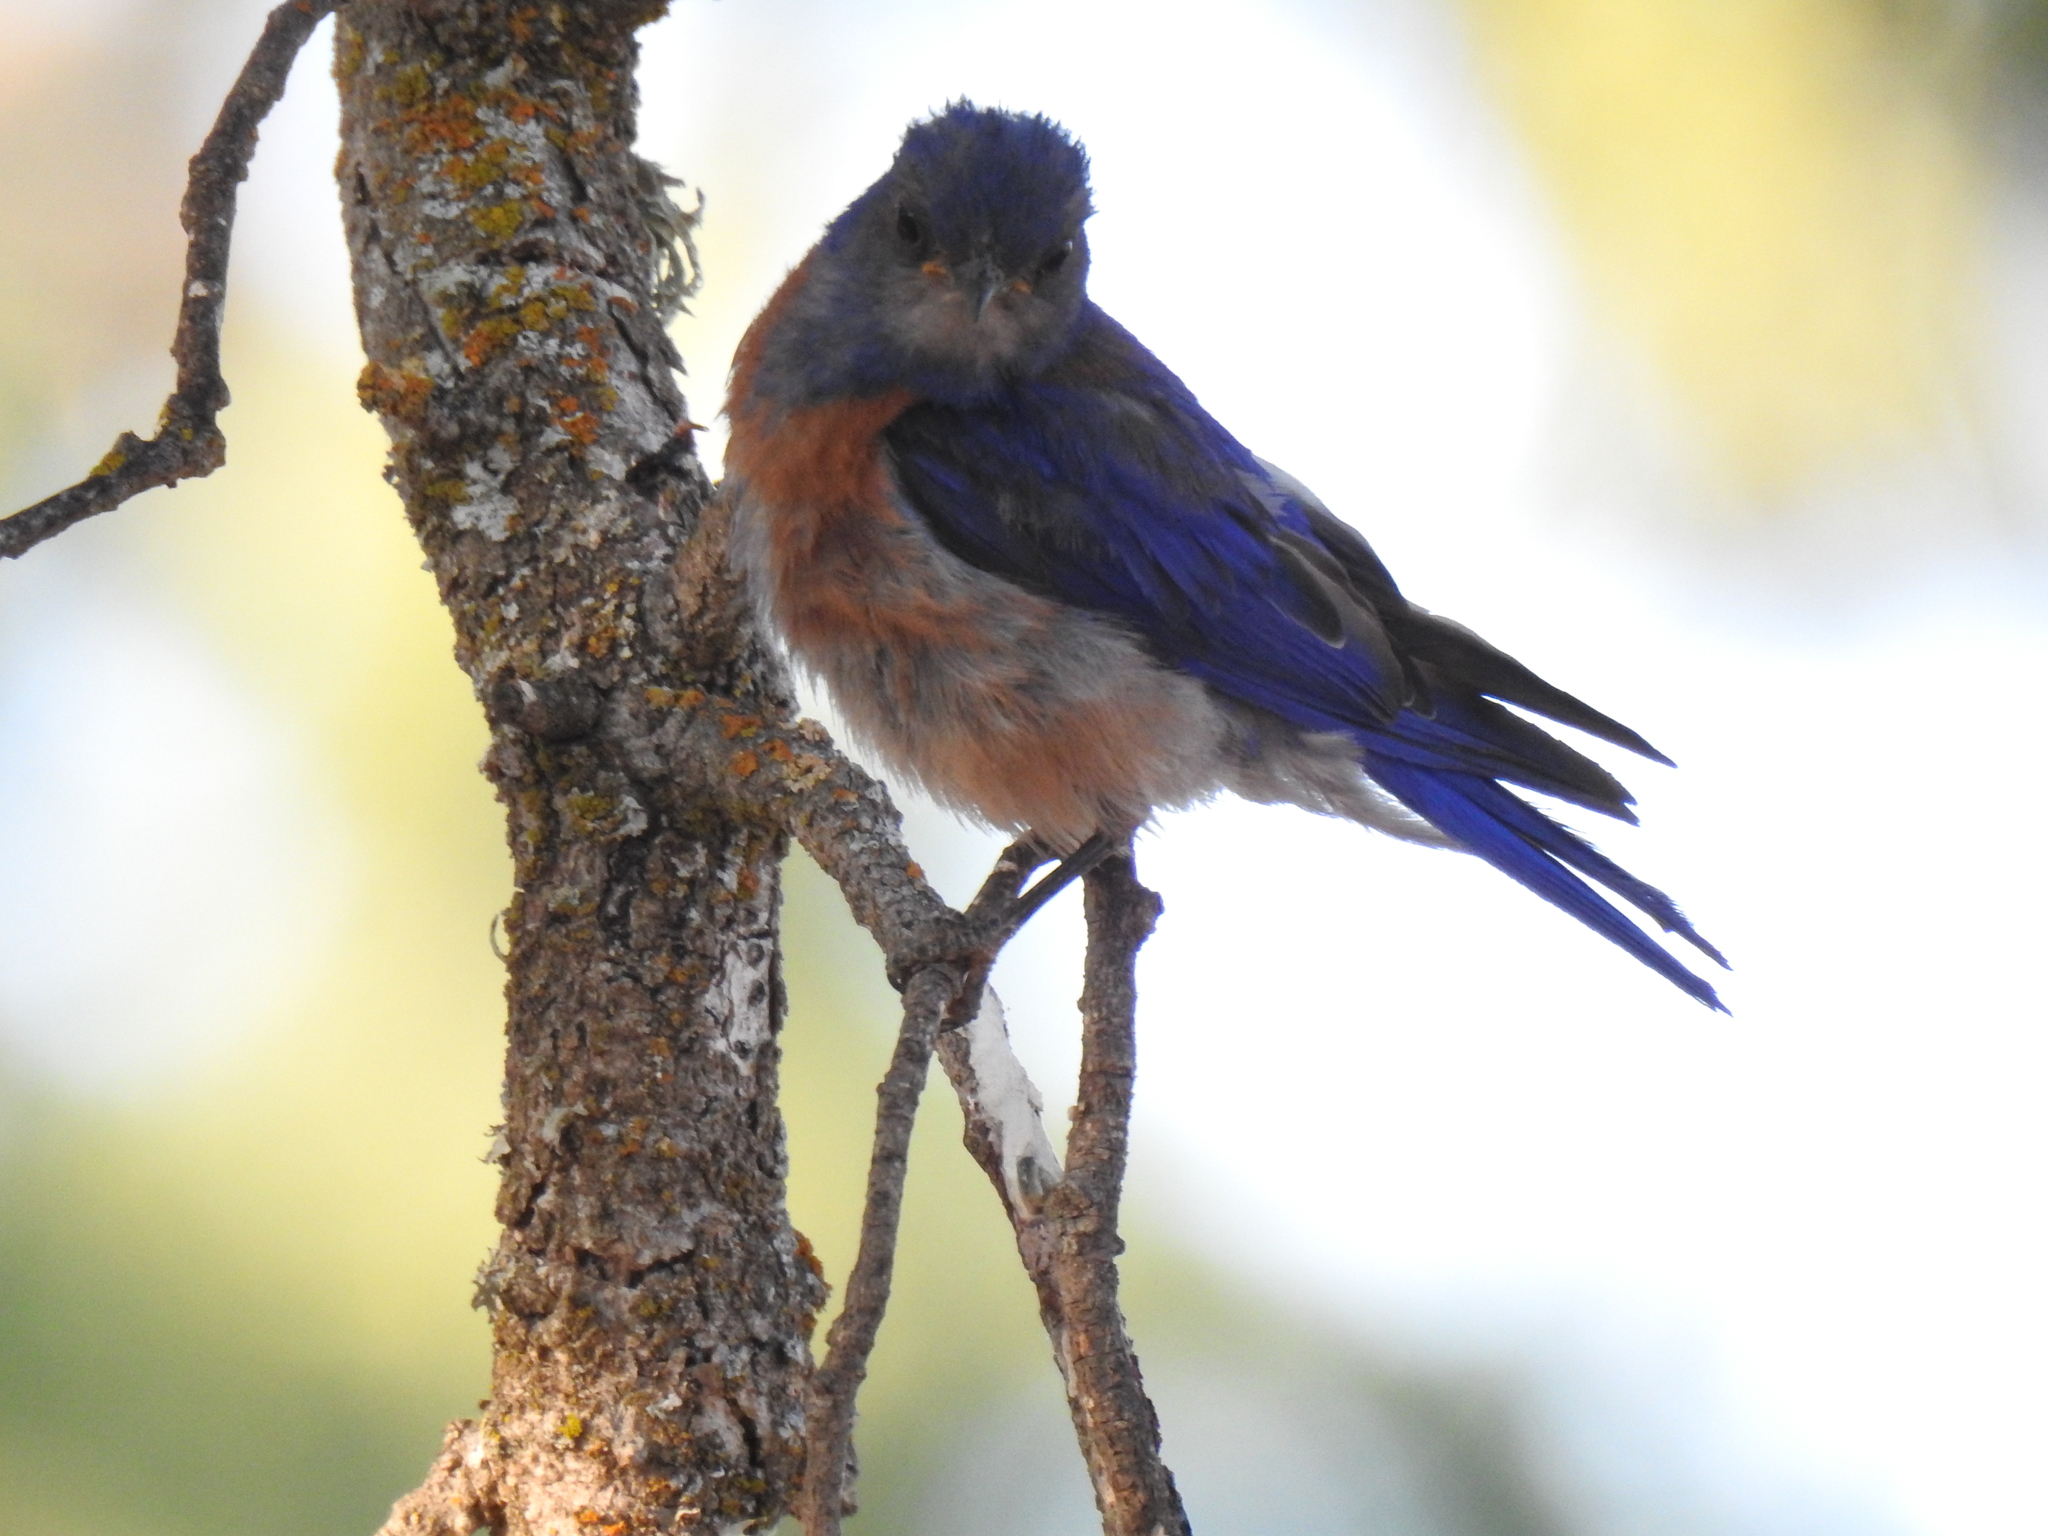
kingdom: Animalia
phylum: Chordata
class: Aves
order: Passeriformes
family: Turdidae
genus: Sialia
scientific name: Sialia mexicana
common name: Western bluebird
